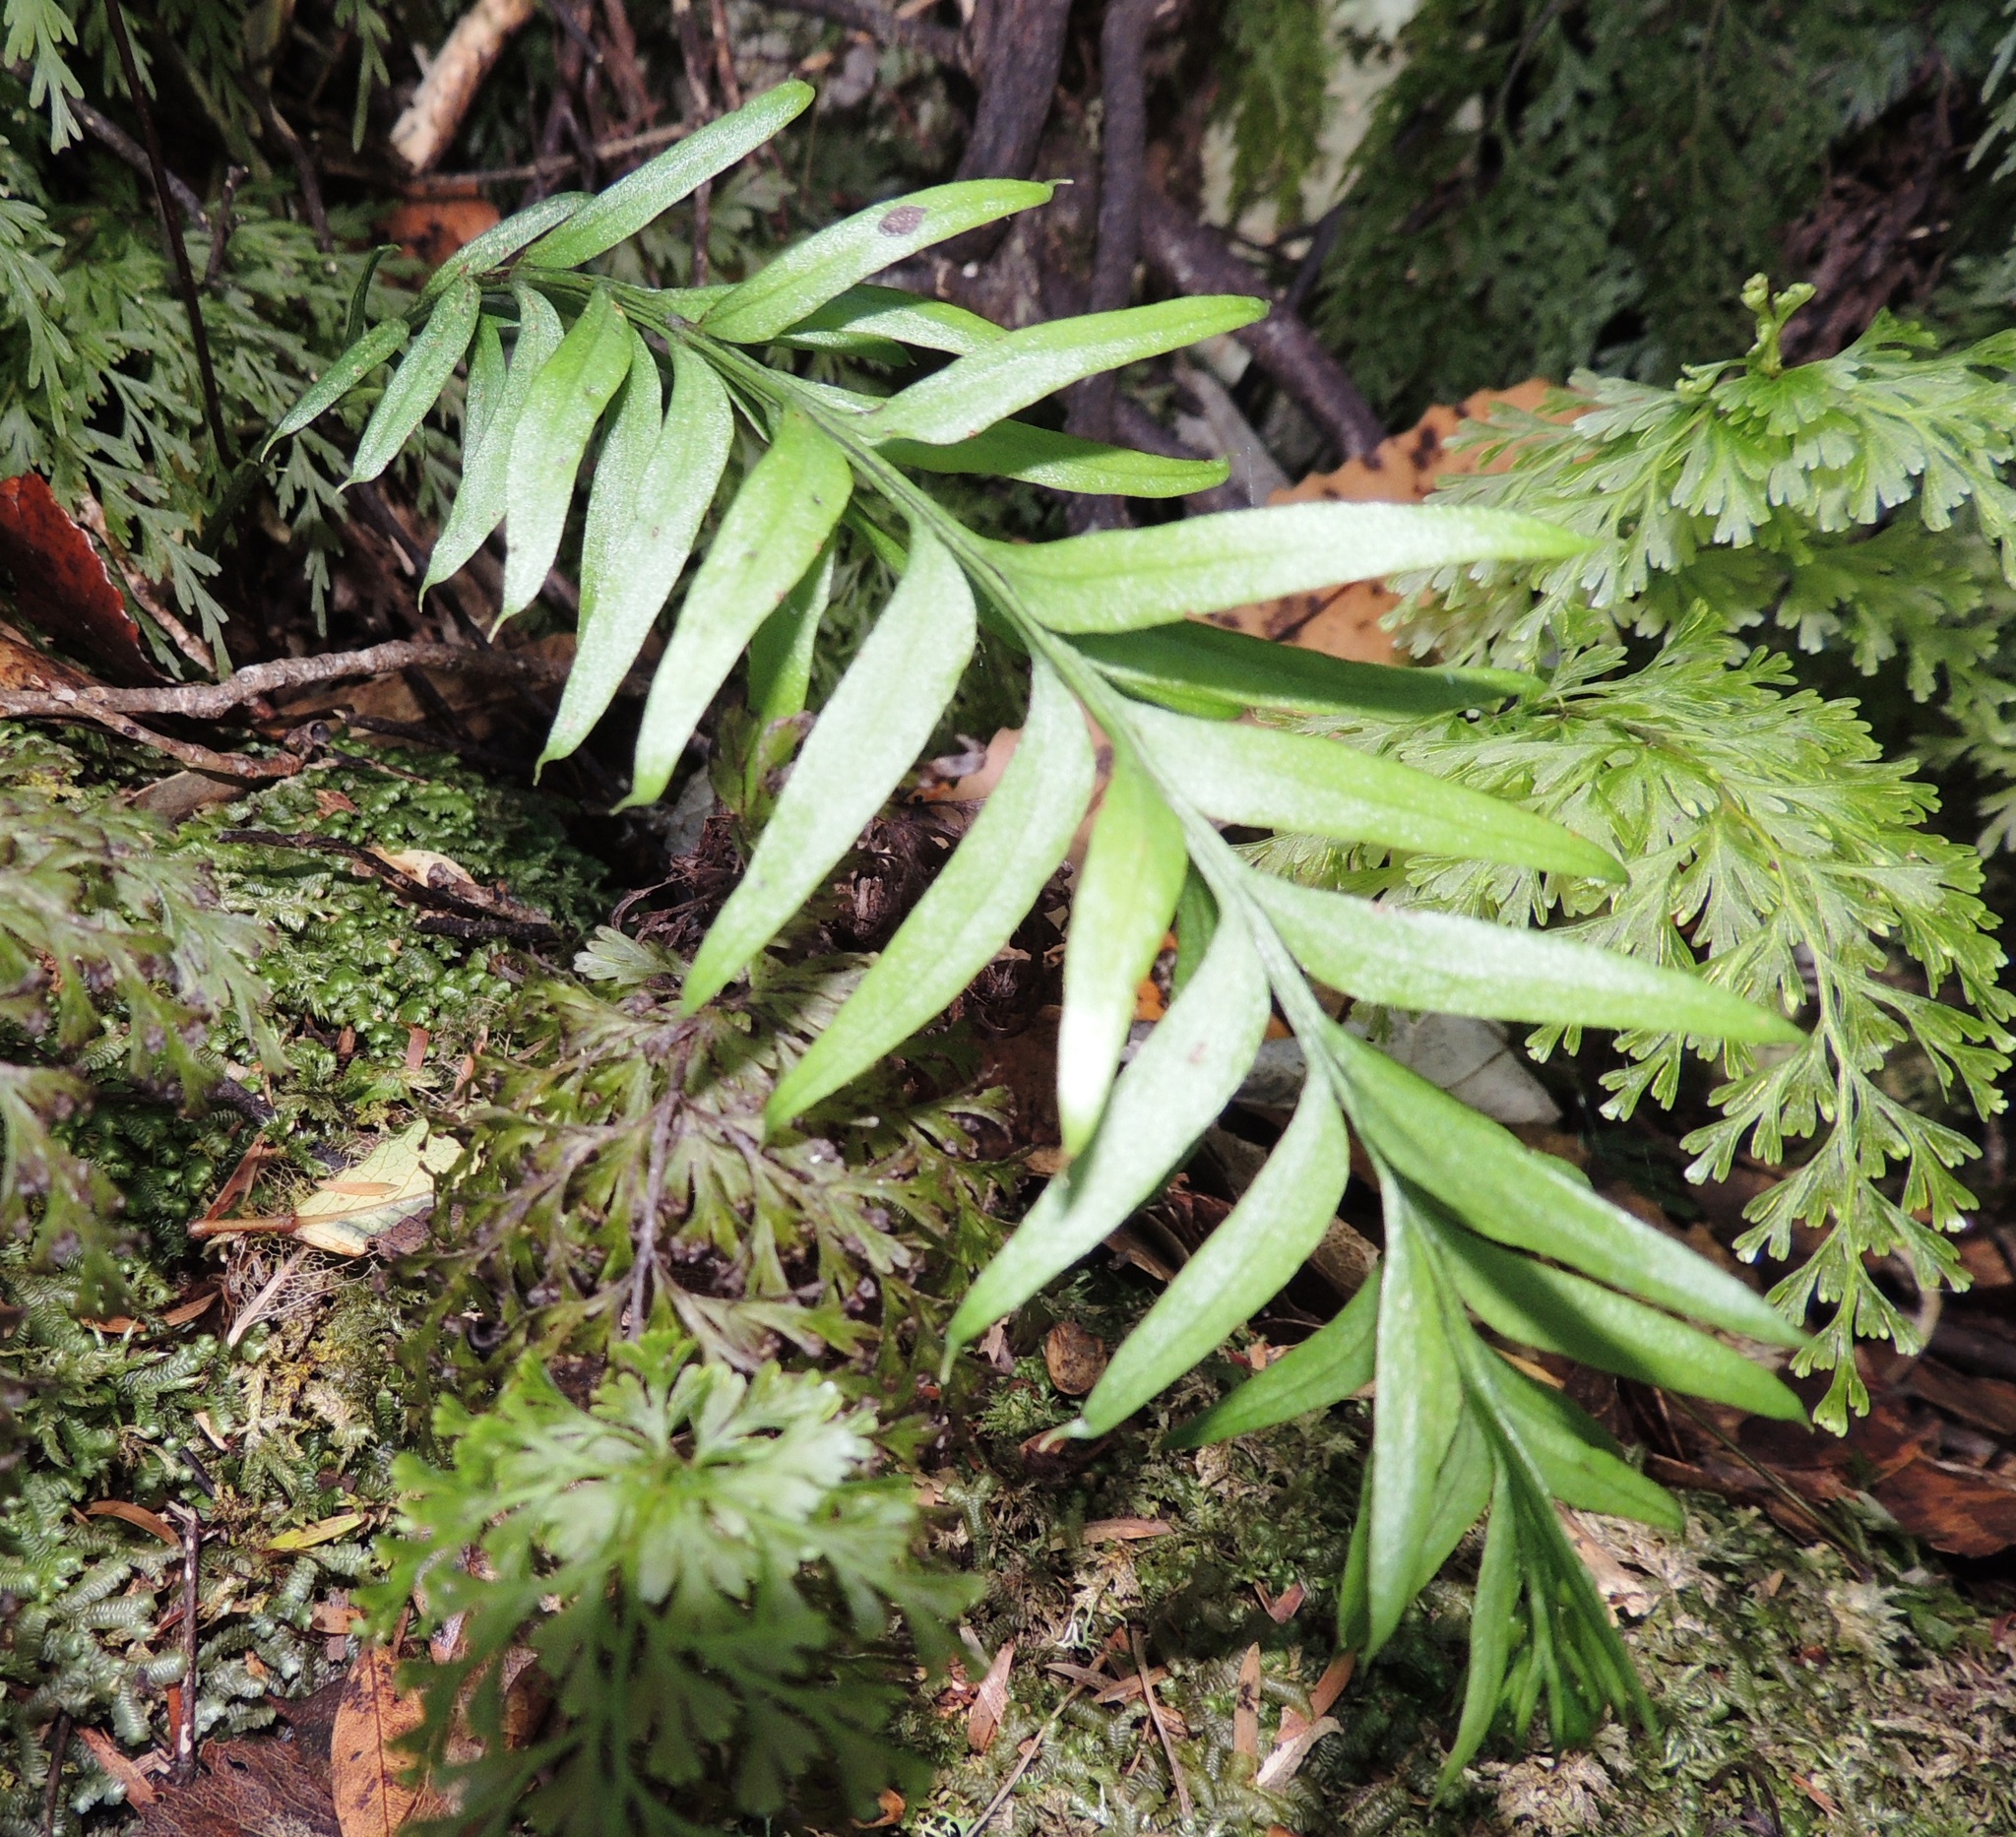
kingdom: Plantae
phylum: Tracheophyta
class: Polypodiopsida
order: Psilotales
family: Psilotaceae
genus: Tmesipteris
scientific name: Tmesipteris tannensis
